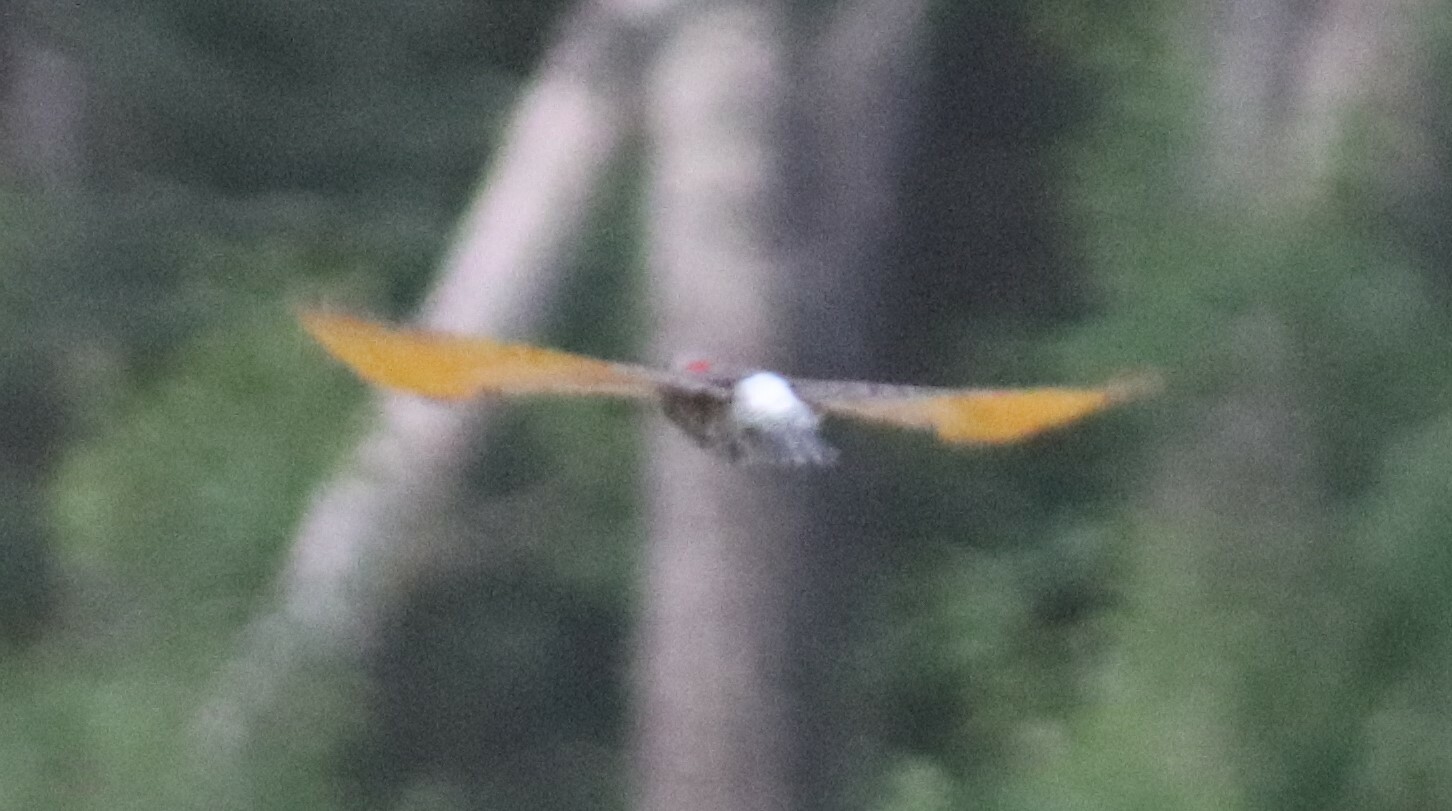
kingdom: Animalia
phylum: Chordata
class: Aves
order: Piciformes
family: Picidae
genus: Colaptes
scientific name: Colaptes auratus
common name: Northern flicker
